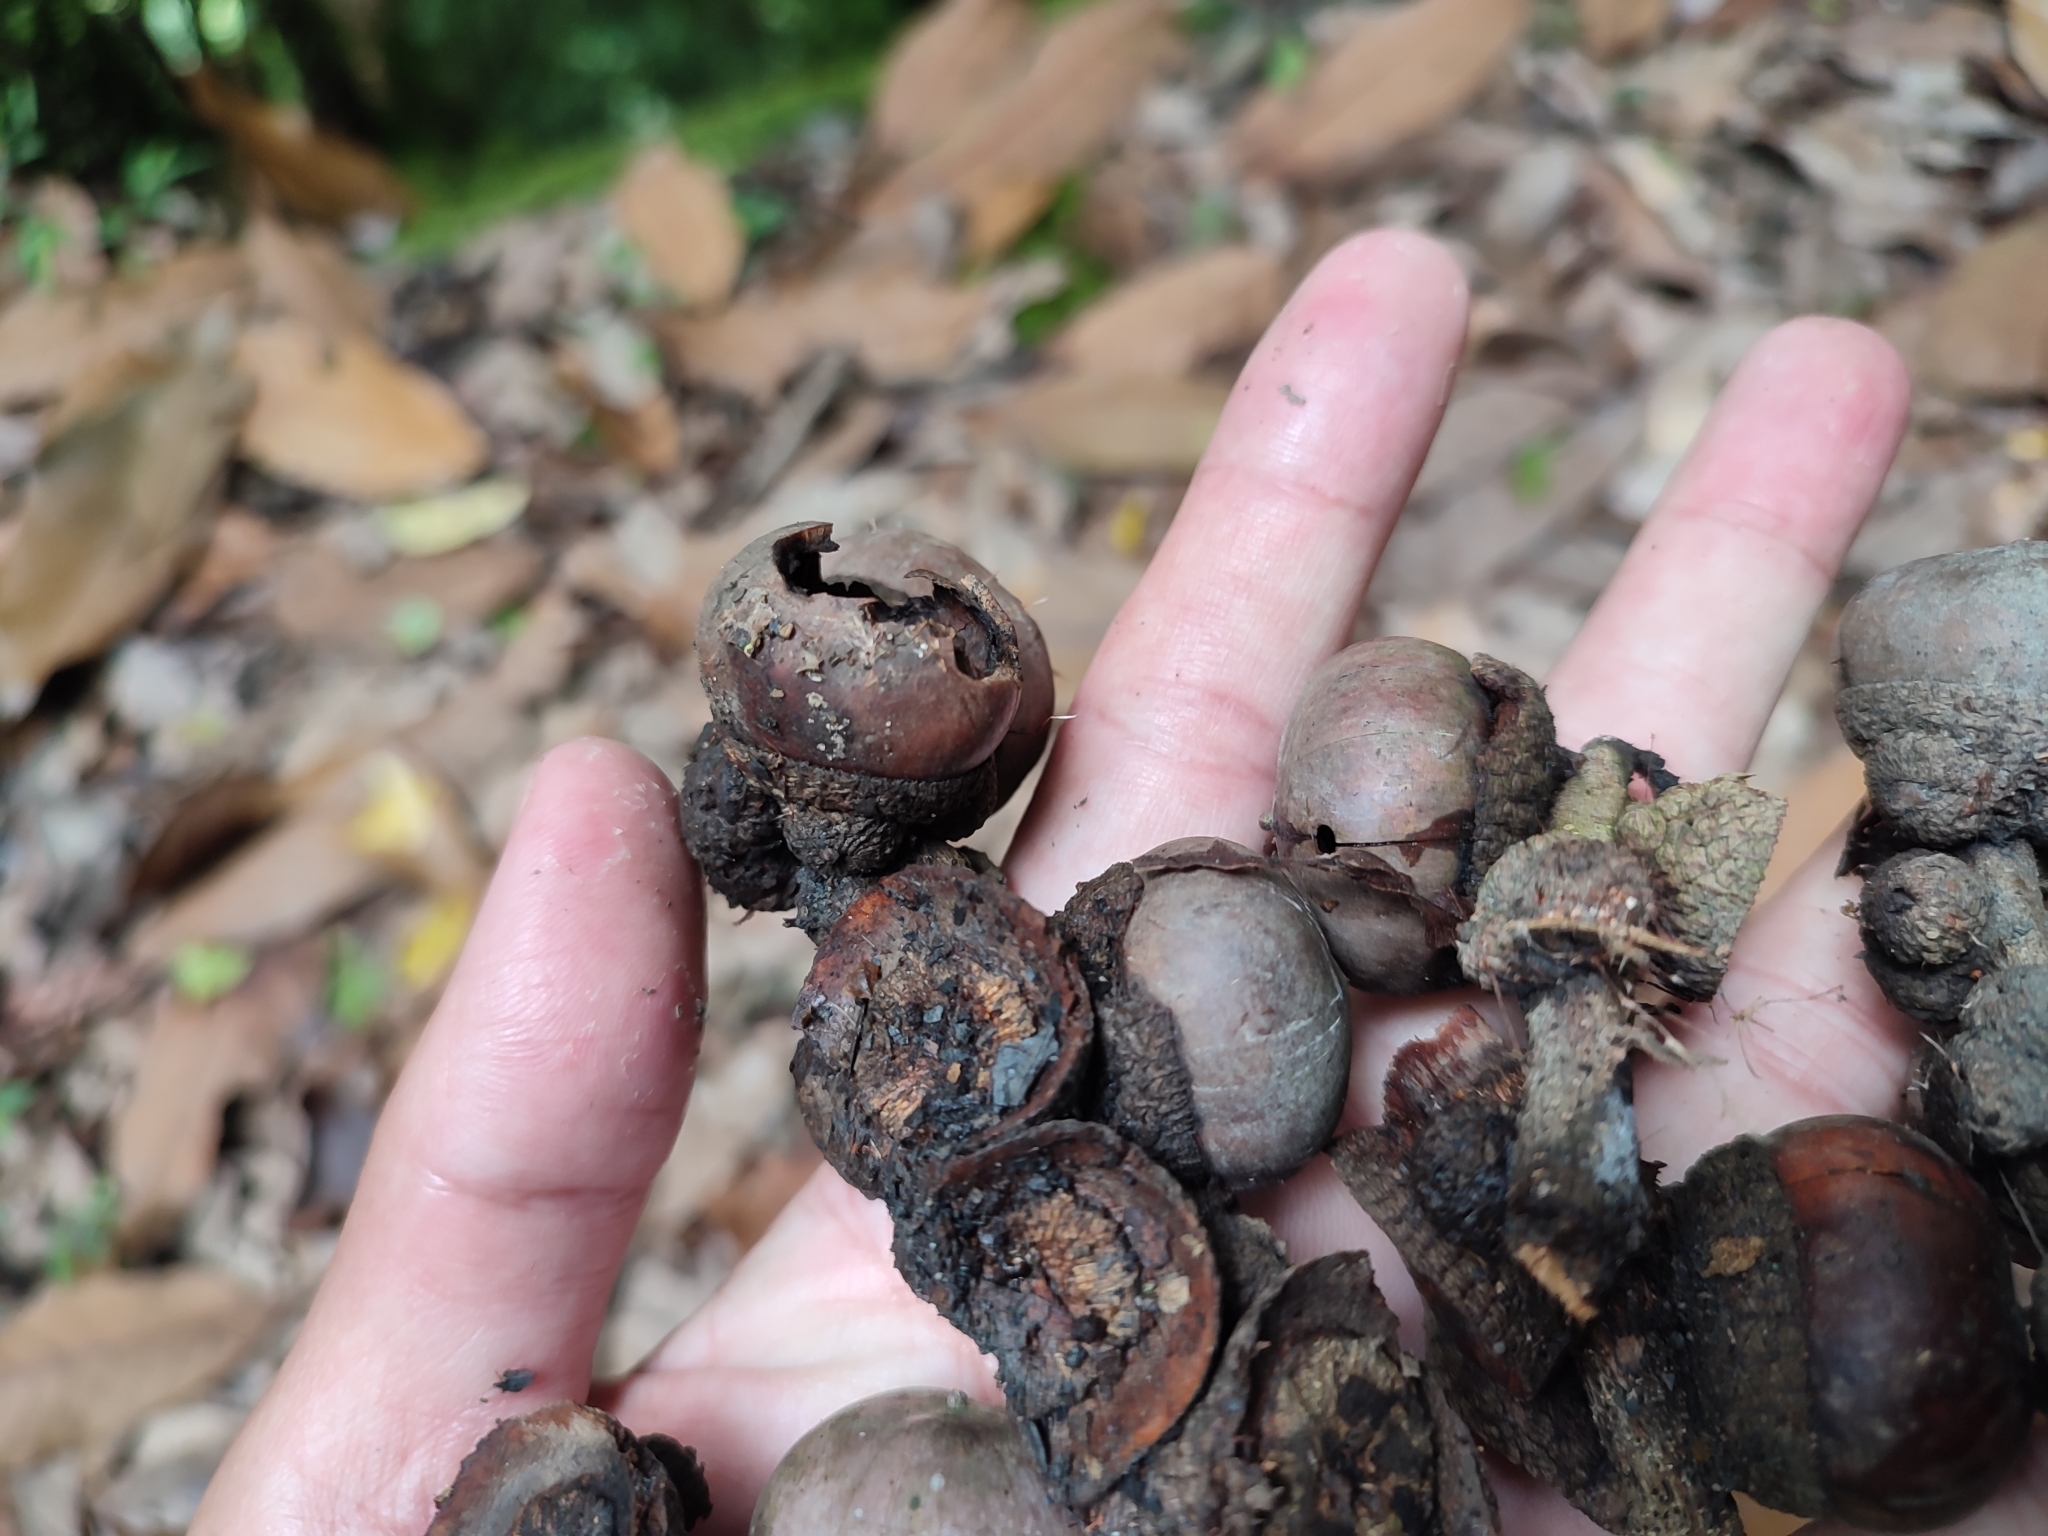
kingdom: Plantae
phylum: Tracheophyta
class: Magnoliopsida
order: Fagales
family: Fagaceae
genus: Lithocarpus
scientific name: Lithocarpus kawakamii
